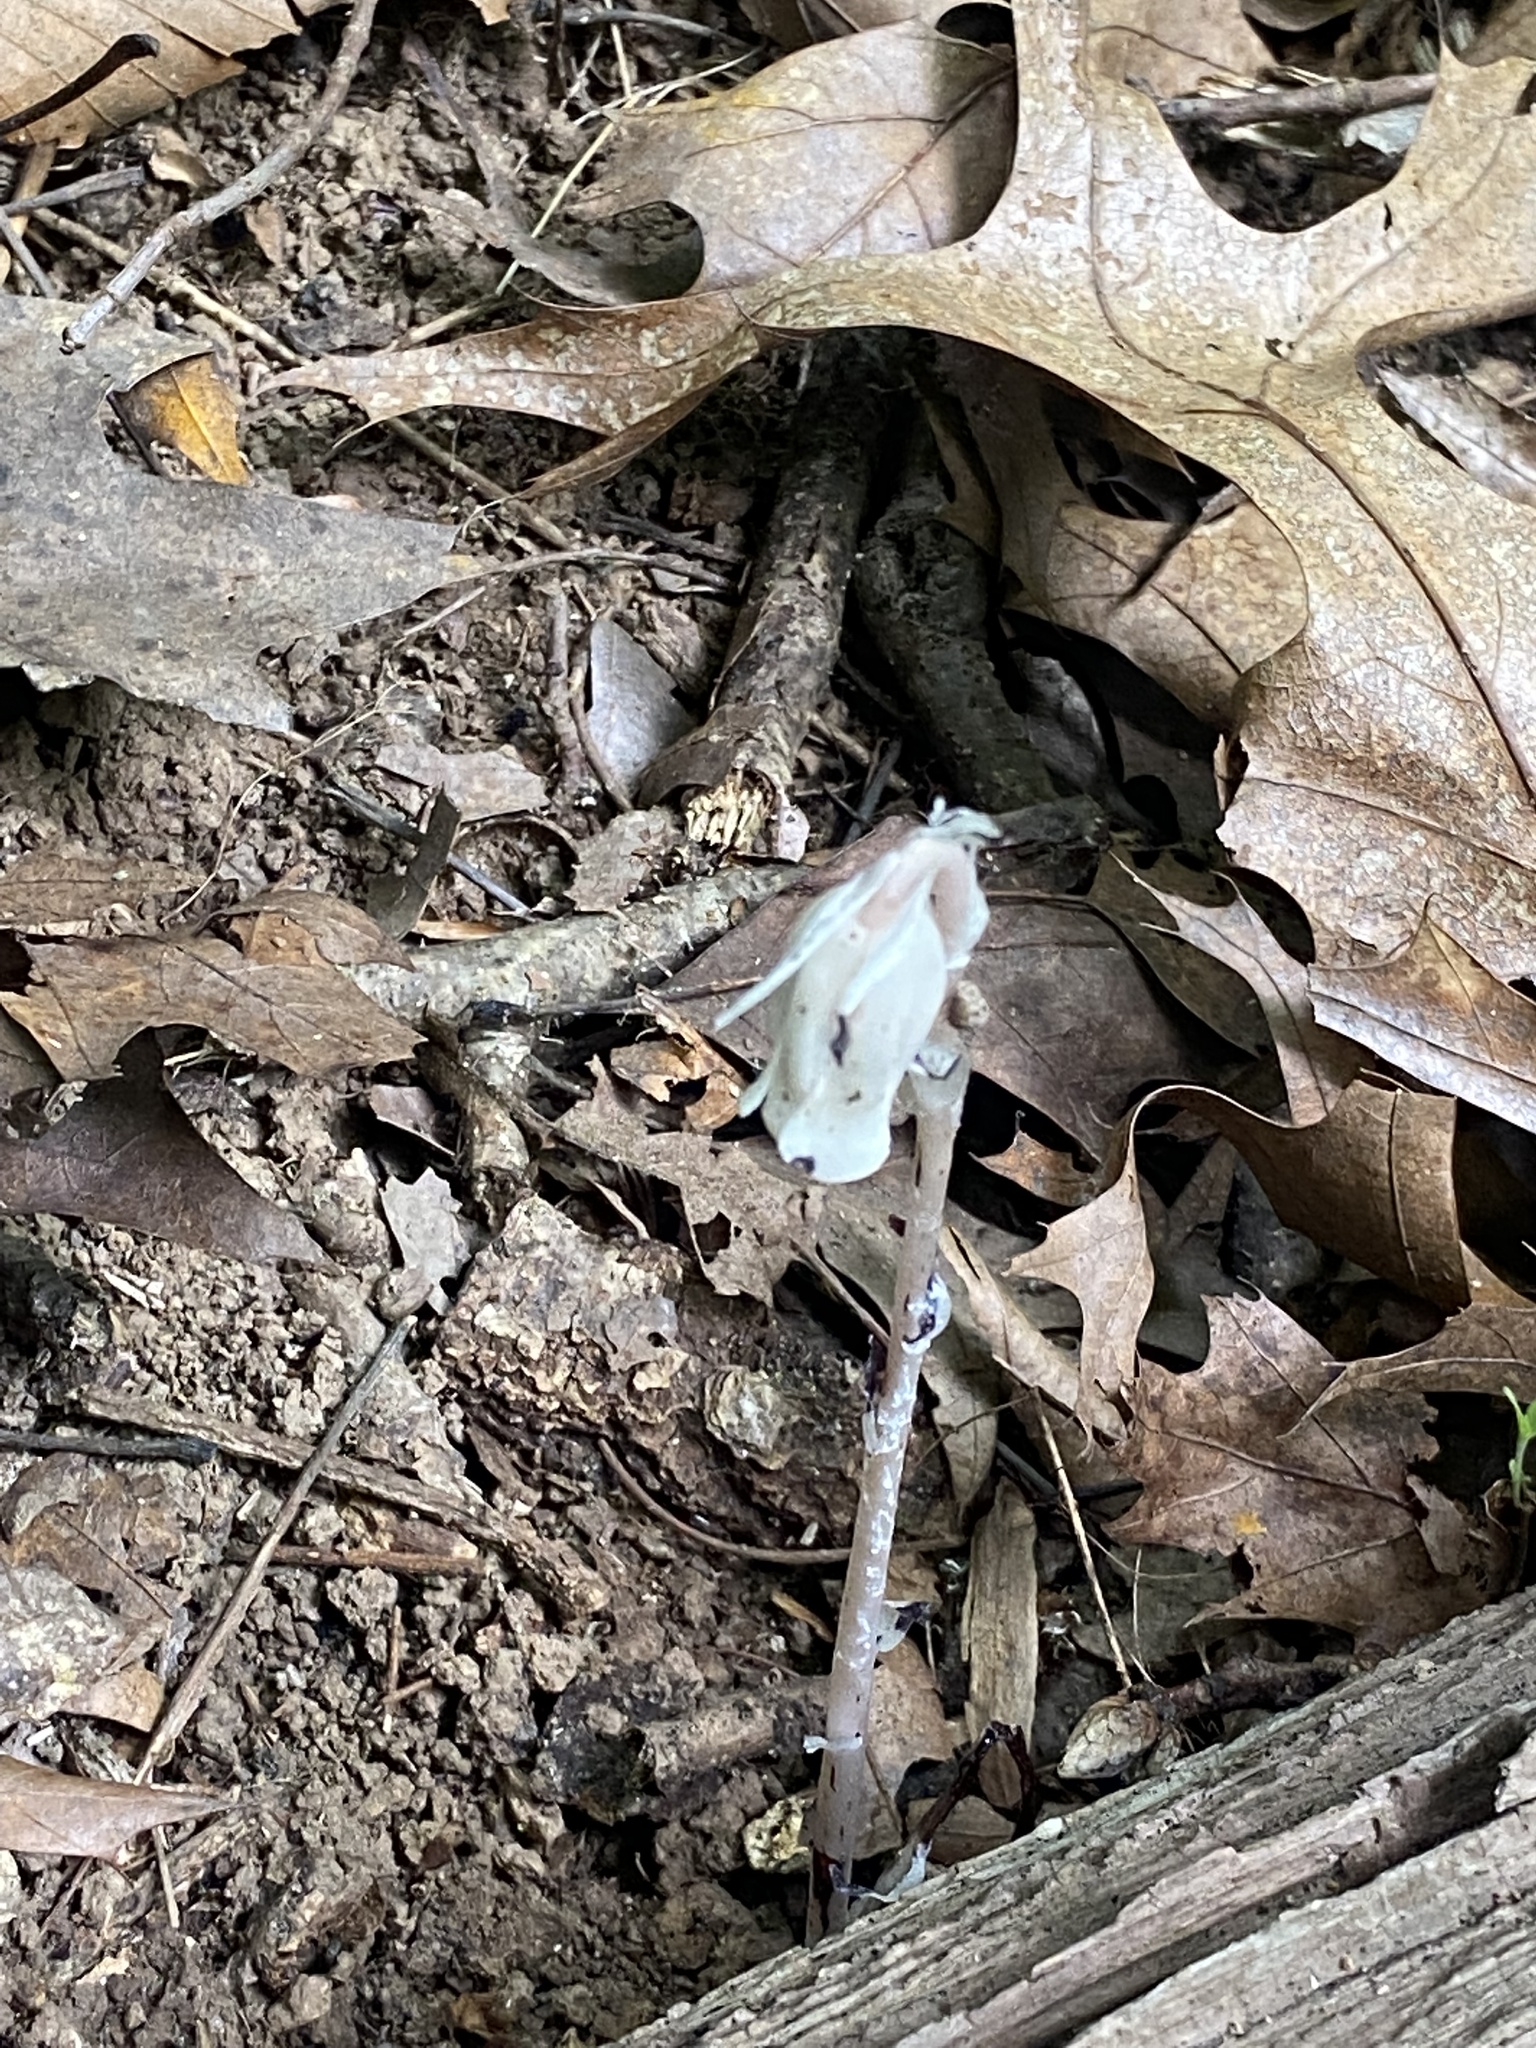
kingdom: Plantae
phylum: Tracheophyta
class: Magnoliopsida
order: Ericales
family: Ericaceae
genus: Monotropa
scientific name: Monotropa uniflora
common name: Convulsion root
